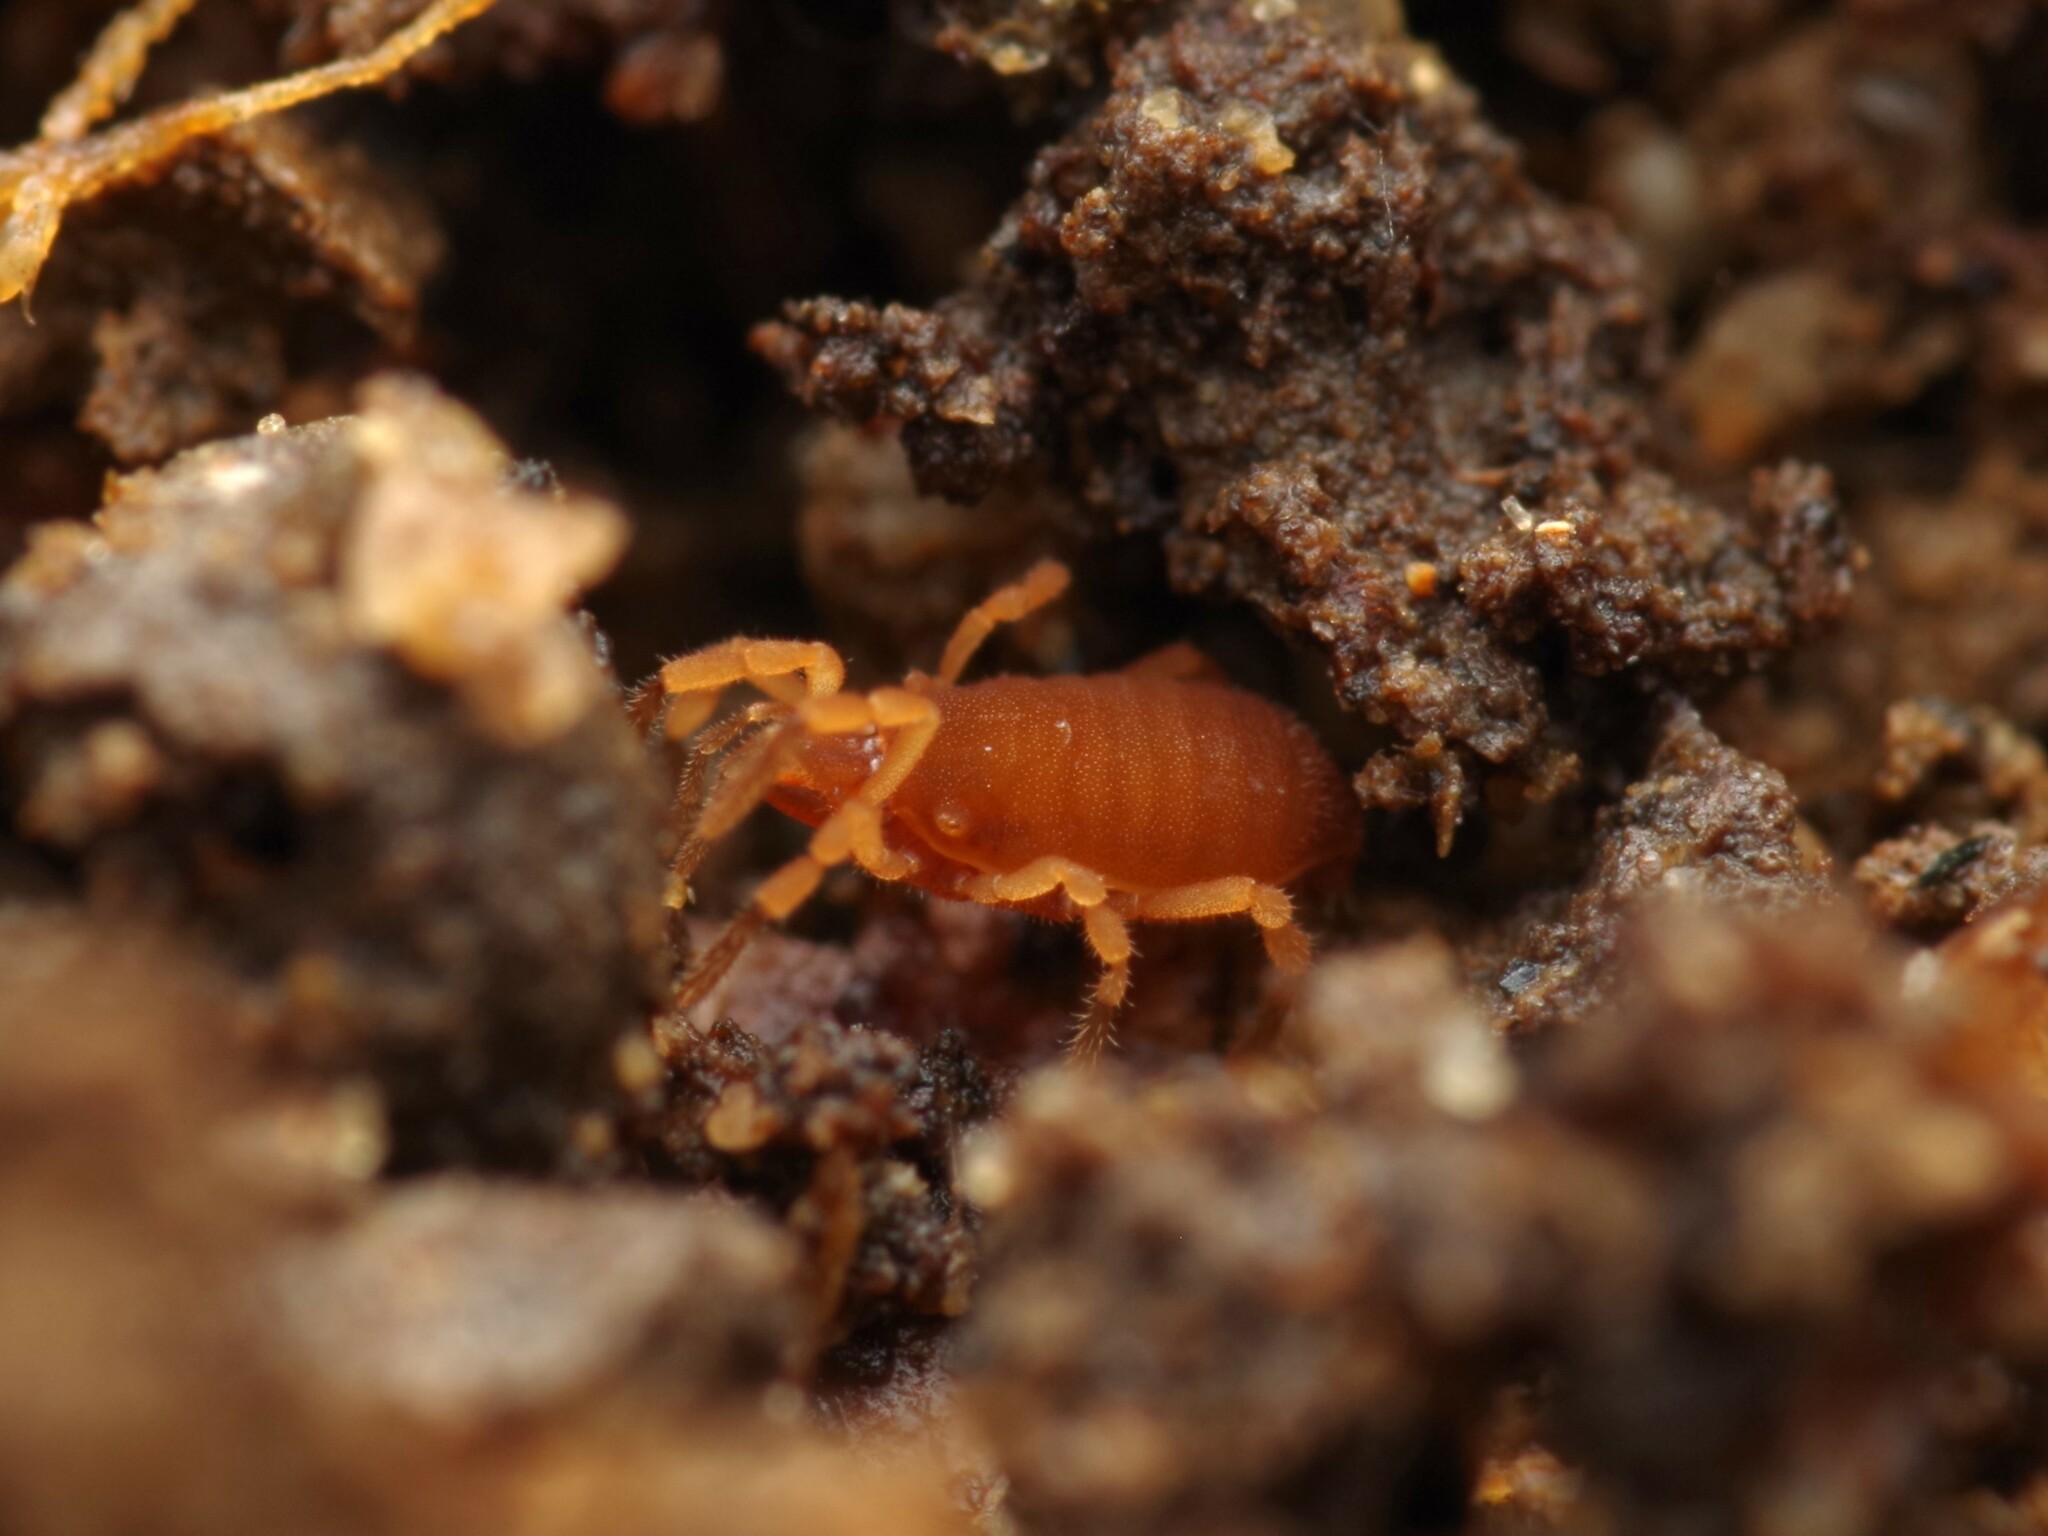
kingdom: Animalia
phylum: Arthropoda
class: Arachnida
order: Opiliones
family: Sironidae
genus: Siro
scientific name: Siro rubens
